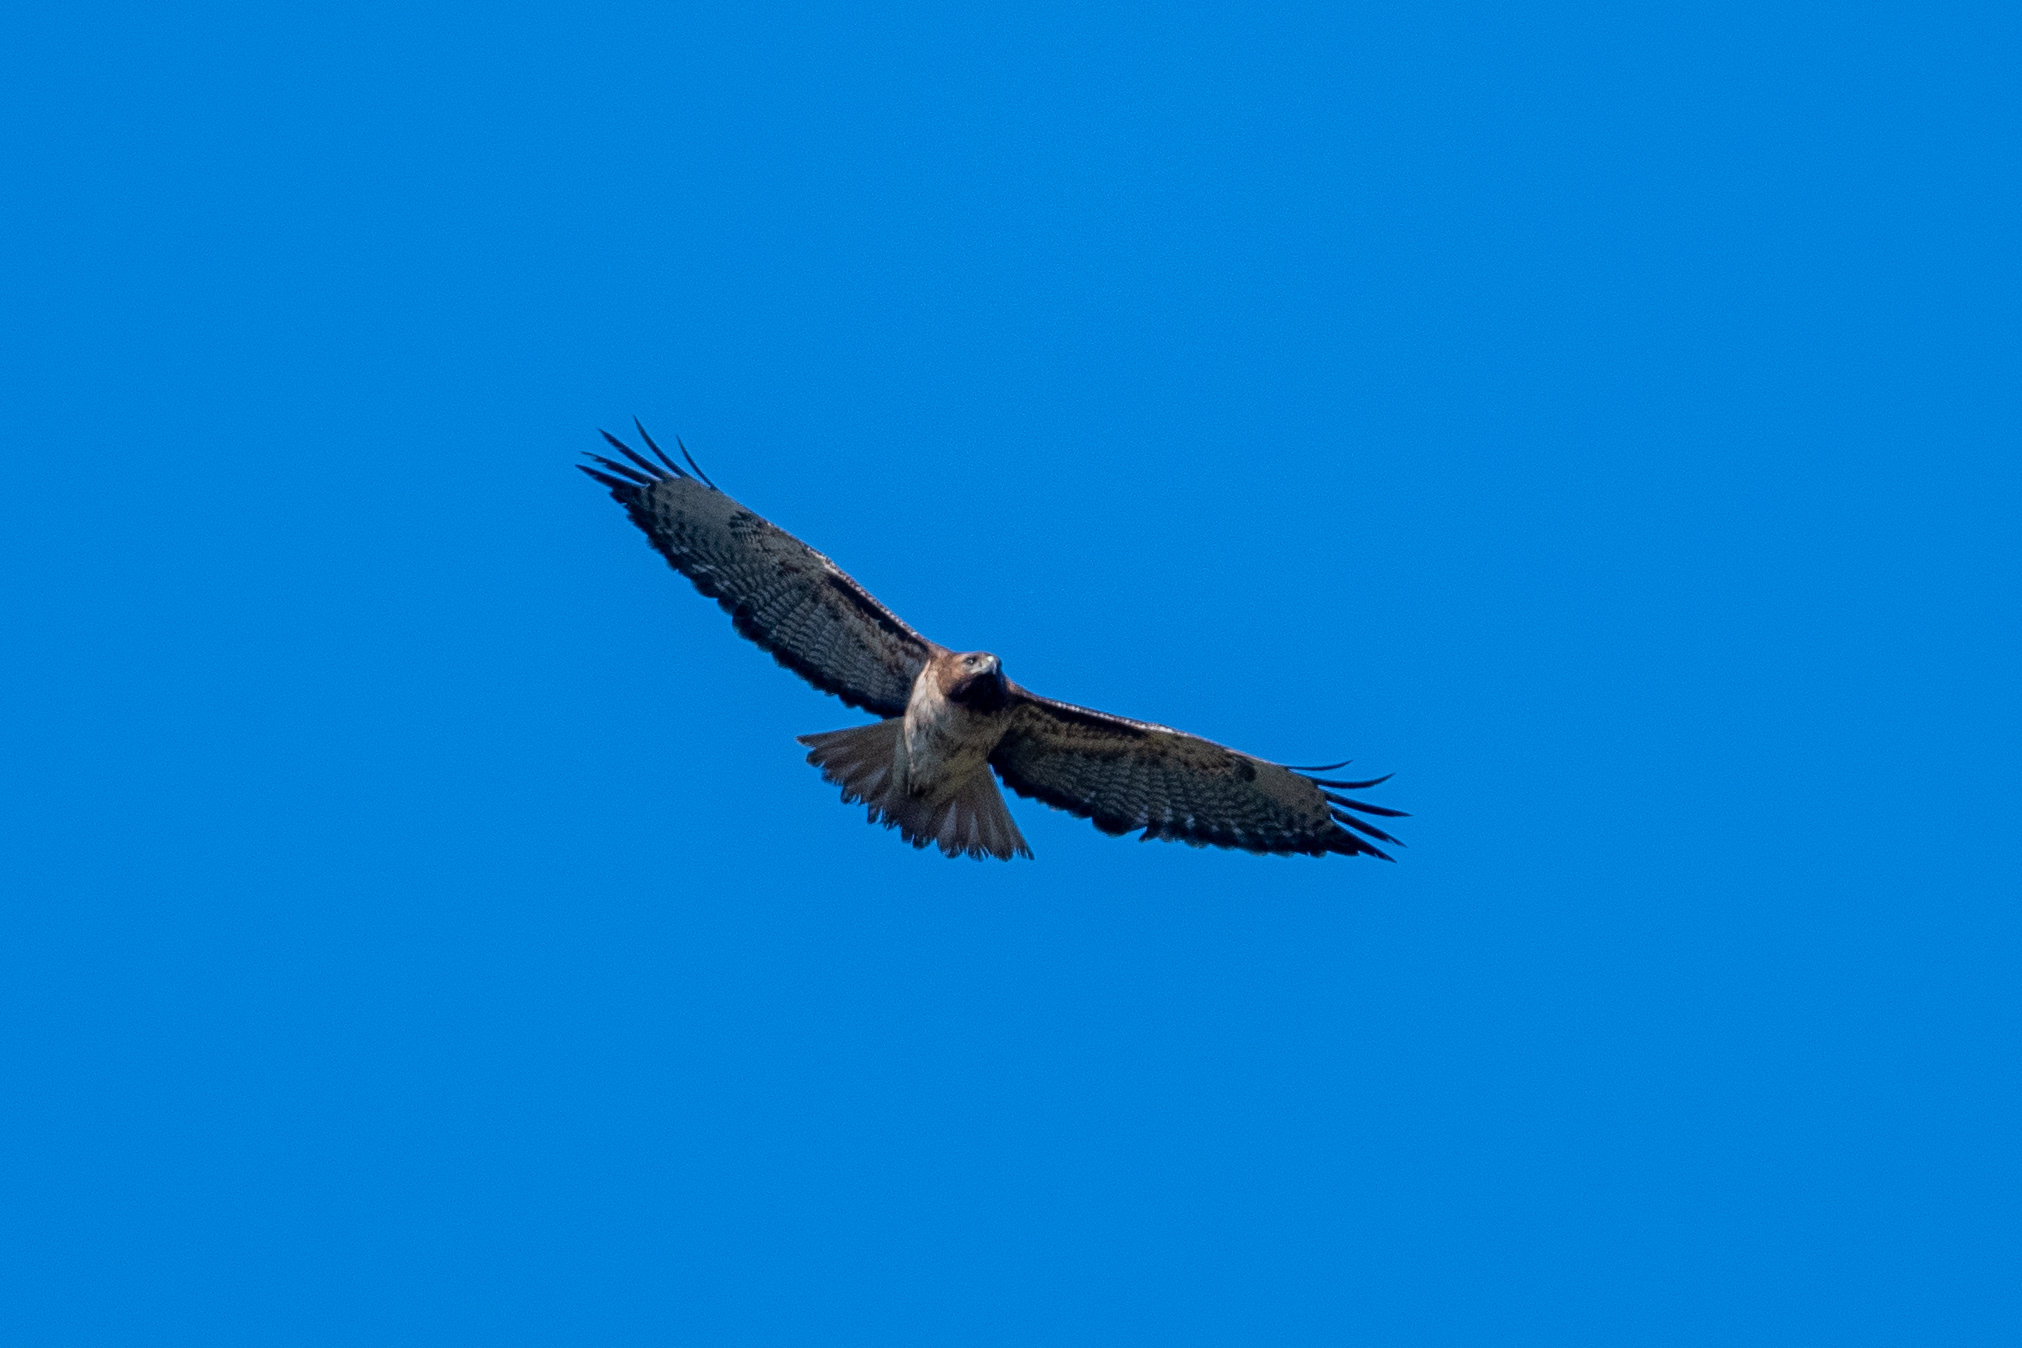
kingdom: Animalia
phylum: Chordata
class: Aves
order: Accipitriformes
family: Accipitridae
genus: Buteo
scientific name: Buteo jamaicensis
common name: Red-tailed hawk
